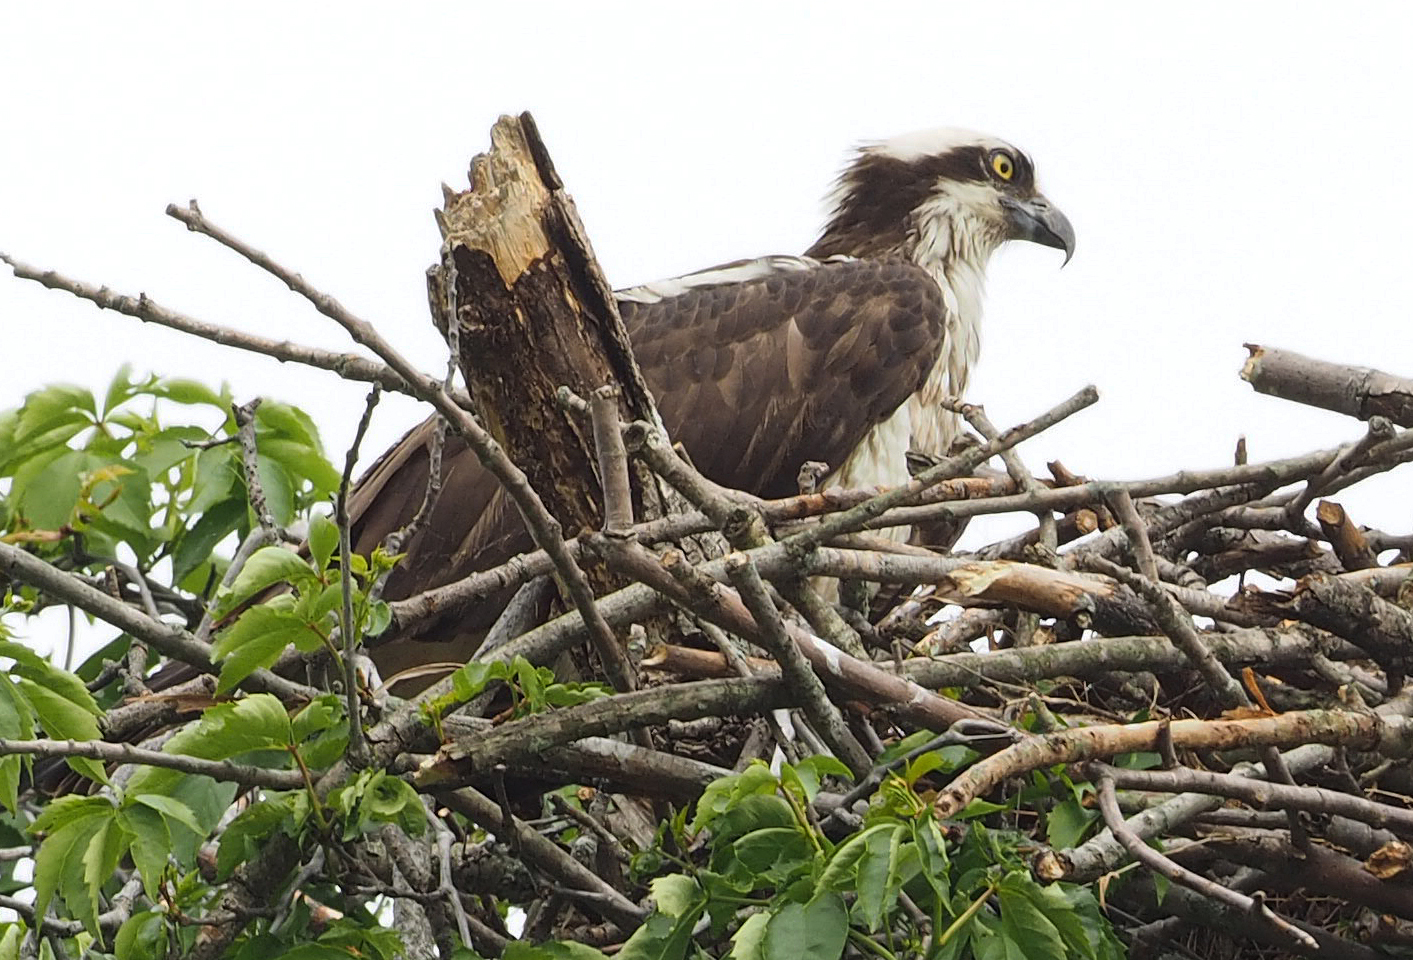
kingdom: Animalia
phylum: Chordata
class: Aves
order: Accipitriformes
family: Pandionidae
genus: Pandion
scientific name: Pandion haliaetus
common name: Osprey
